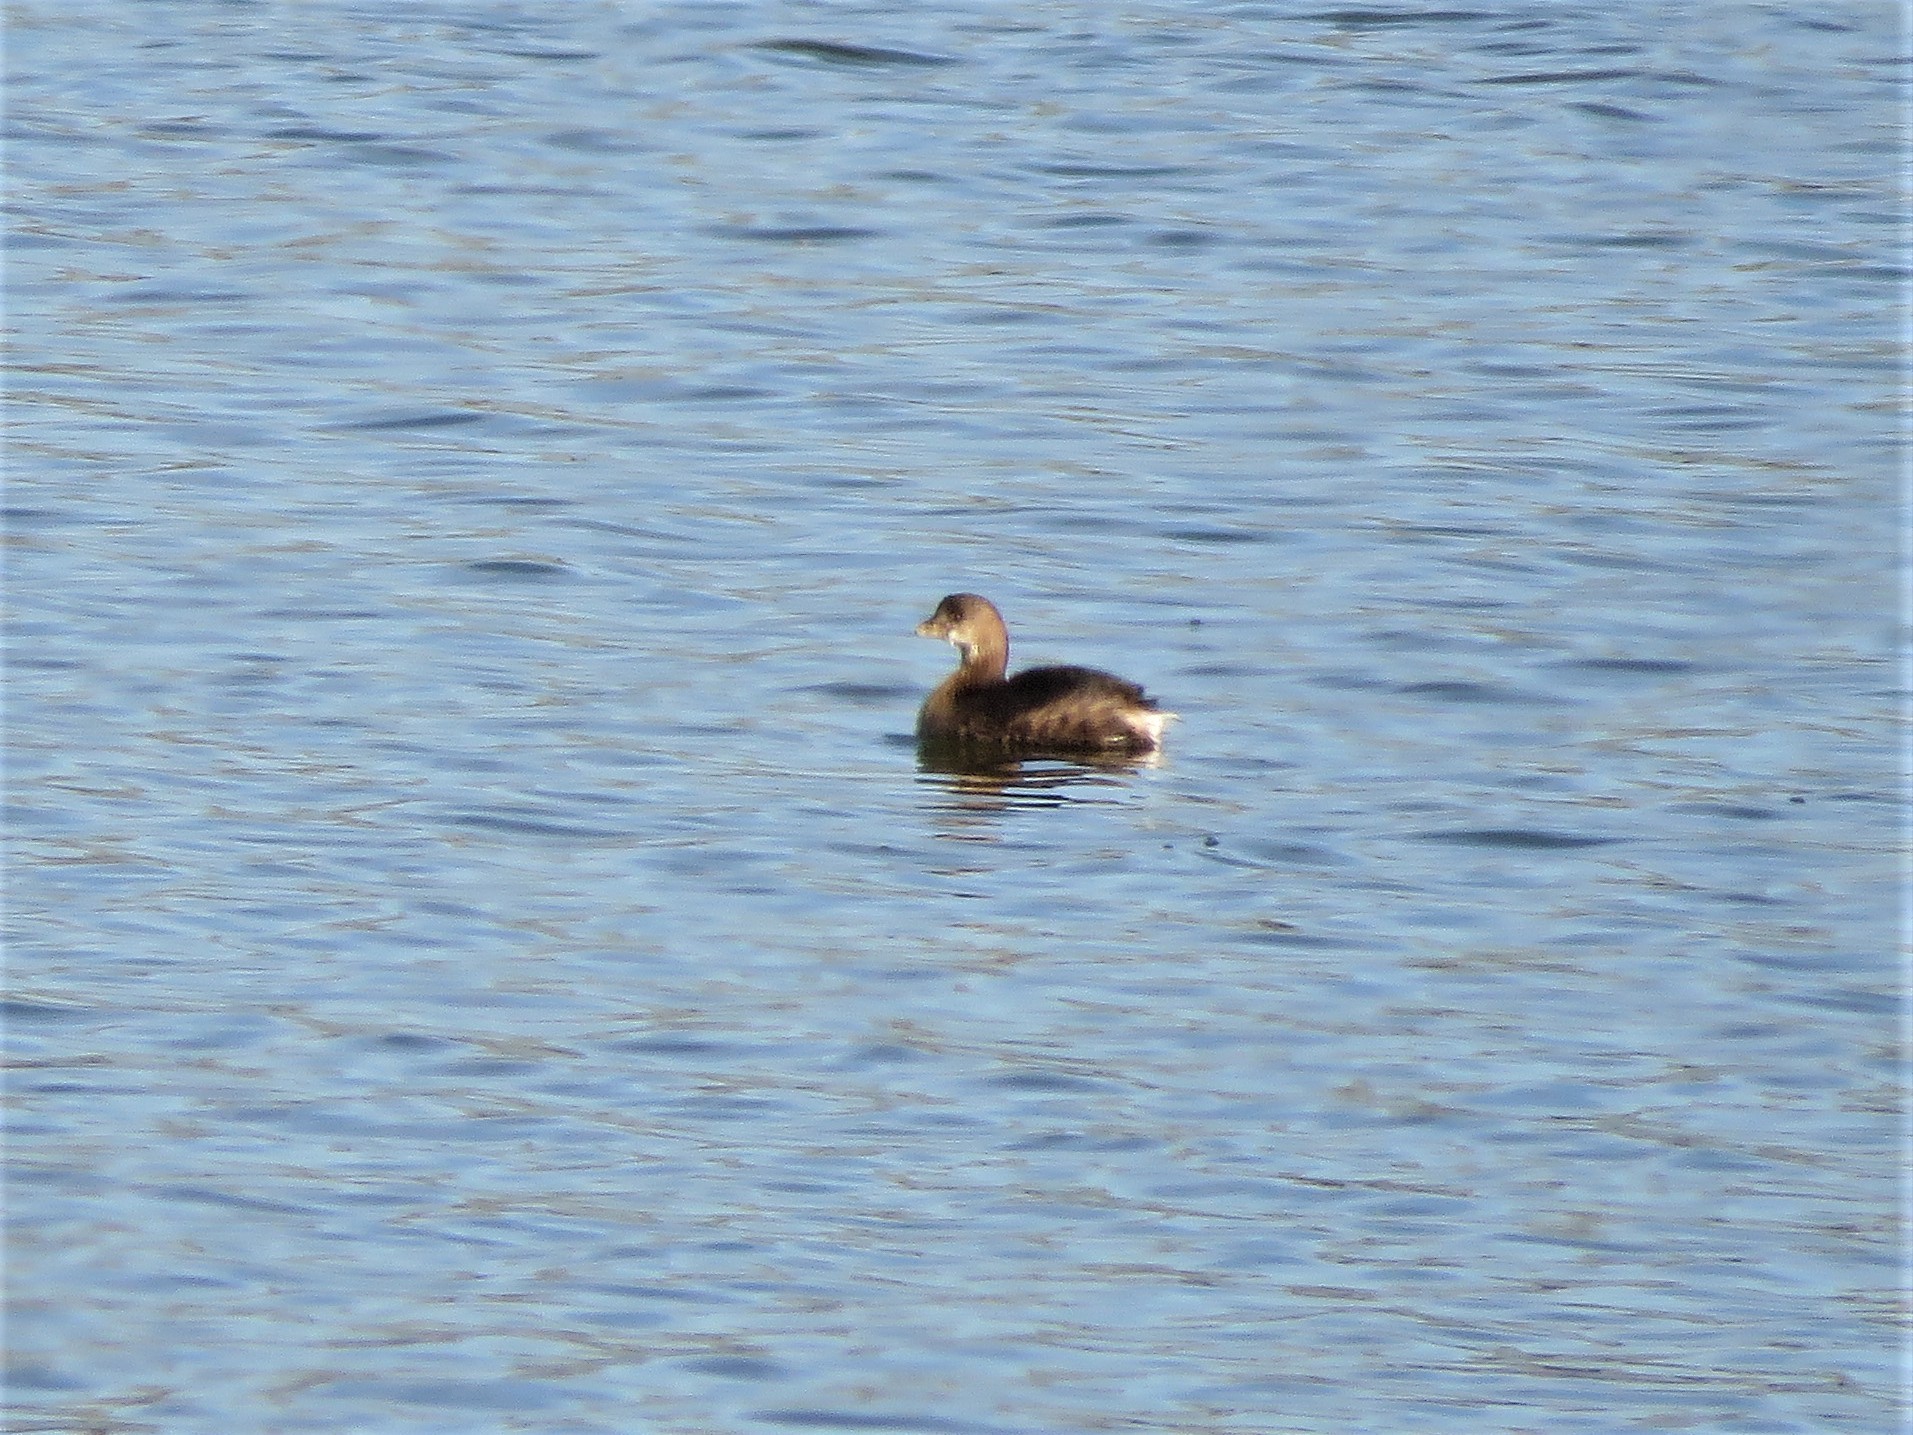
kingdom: Animalia
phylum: Chordata
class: Aves
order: Podicipediformes
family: Podicipedidae
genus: Podilymbus
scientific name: Podilymbus podiceps
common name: Pied-billed grebe
